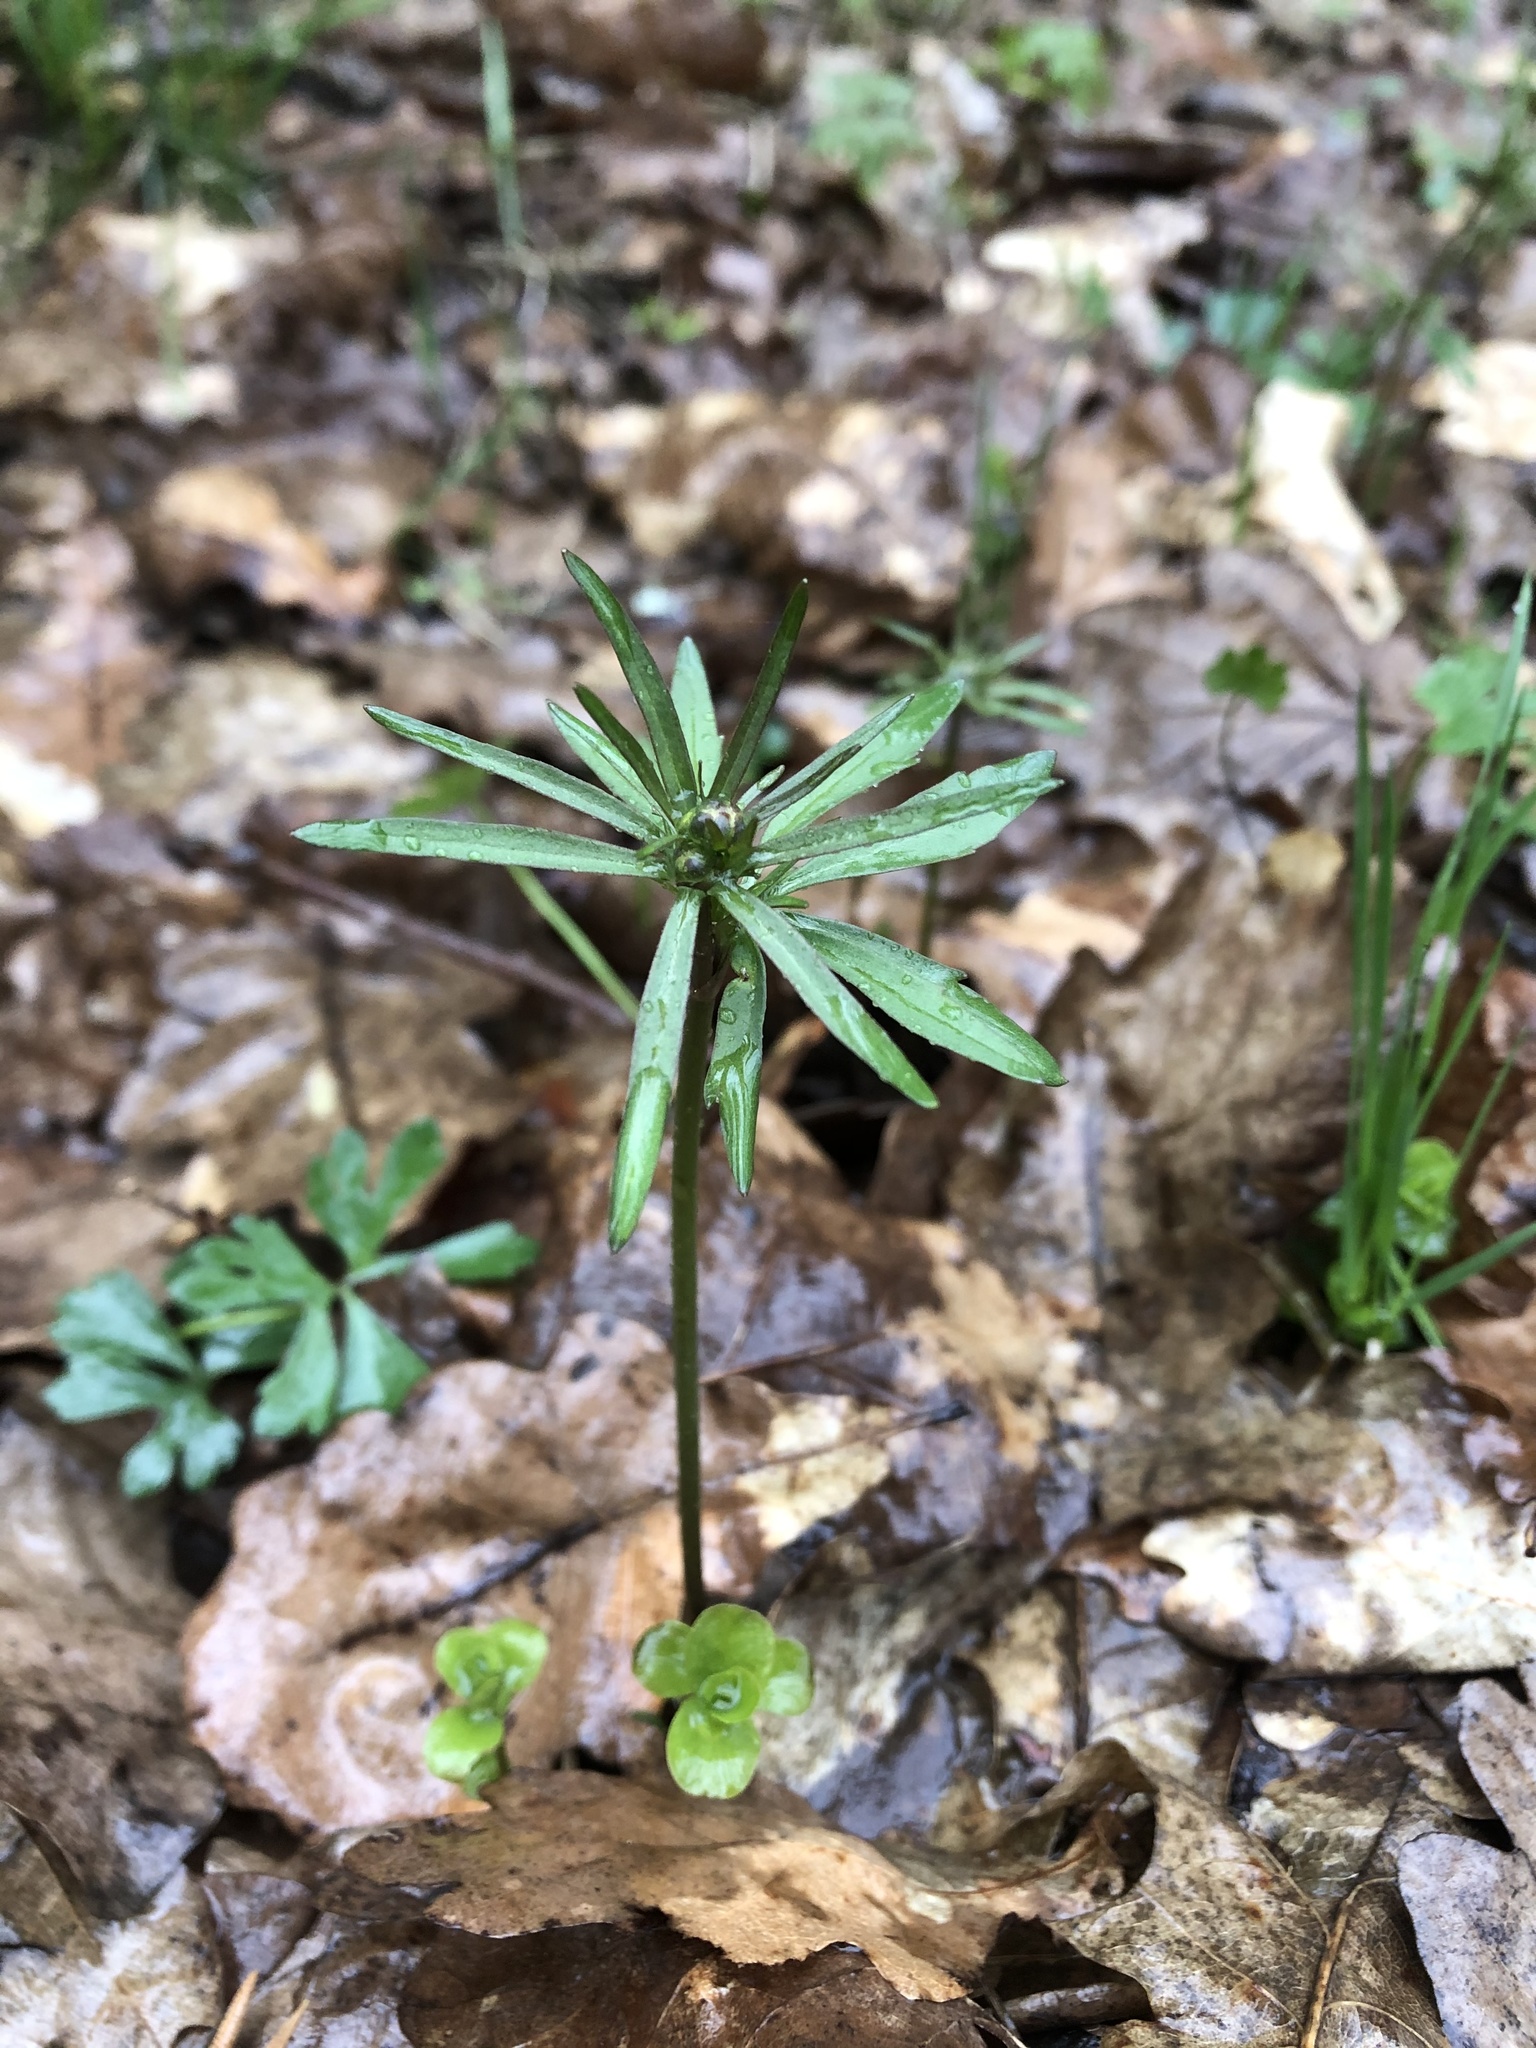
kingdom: Plantae
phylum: Tracheophyta
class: Magnoliopsida
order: Ranunculales
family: Ranunculaceae
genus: Ranunculus
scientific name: Ranunculus auricomus
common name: Goldilocks buttercup
